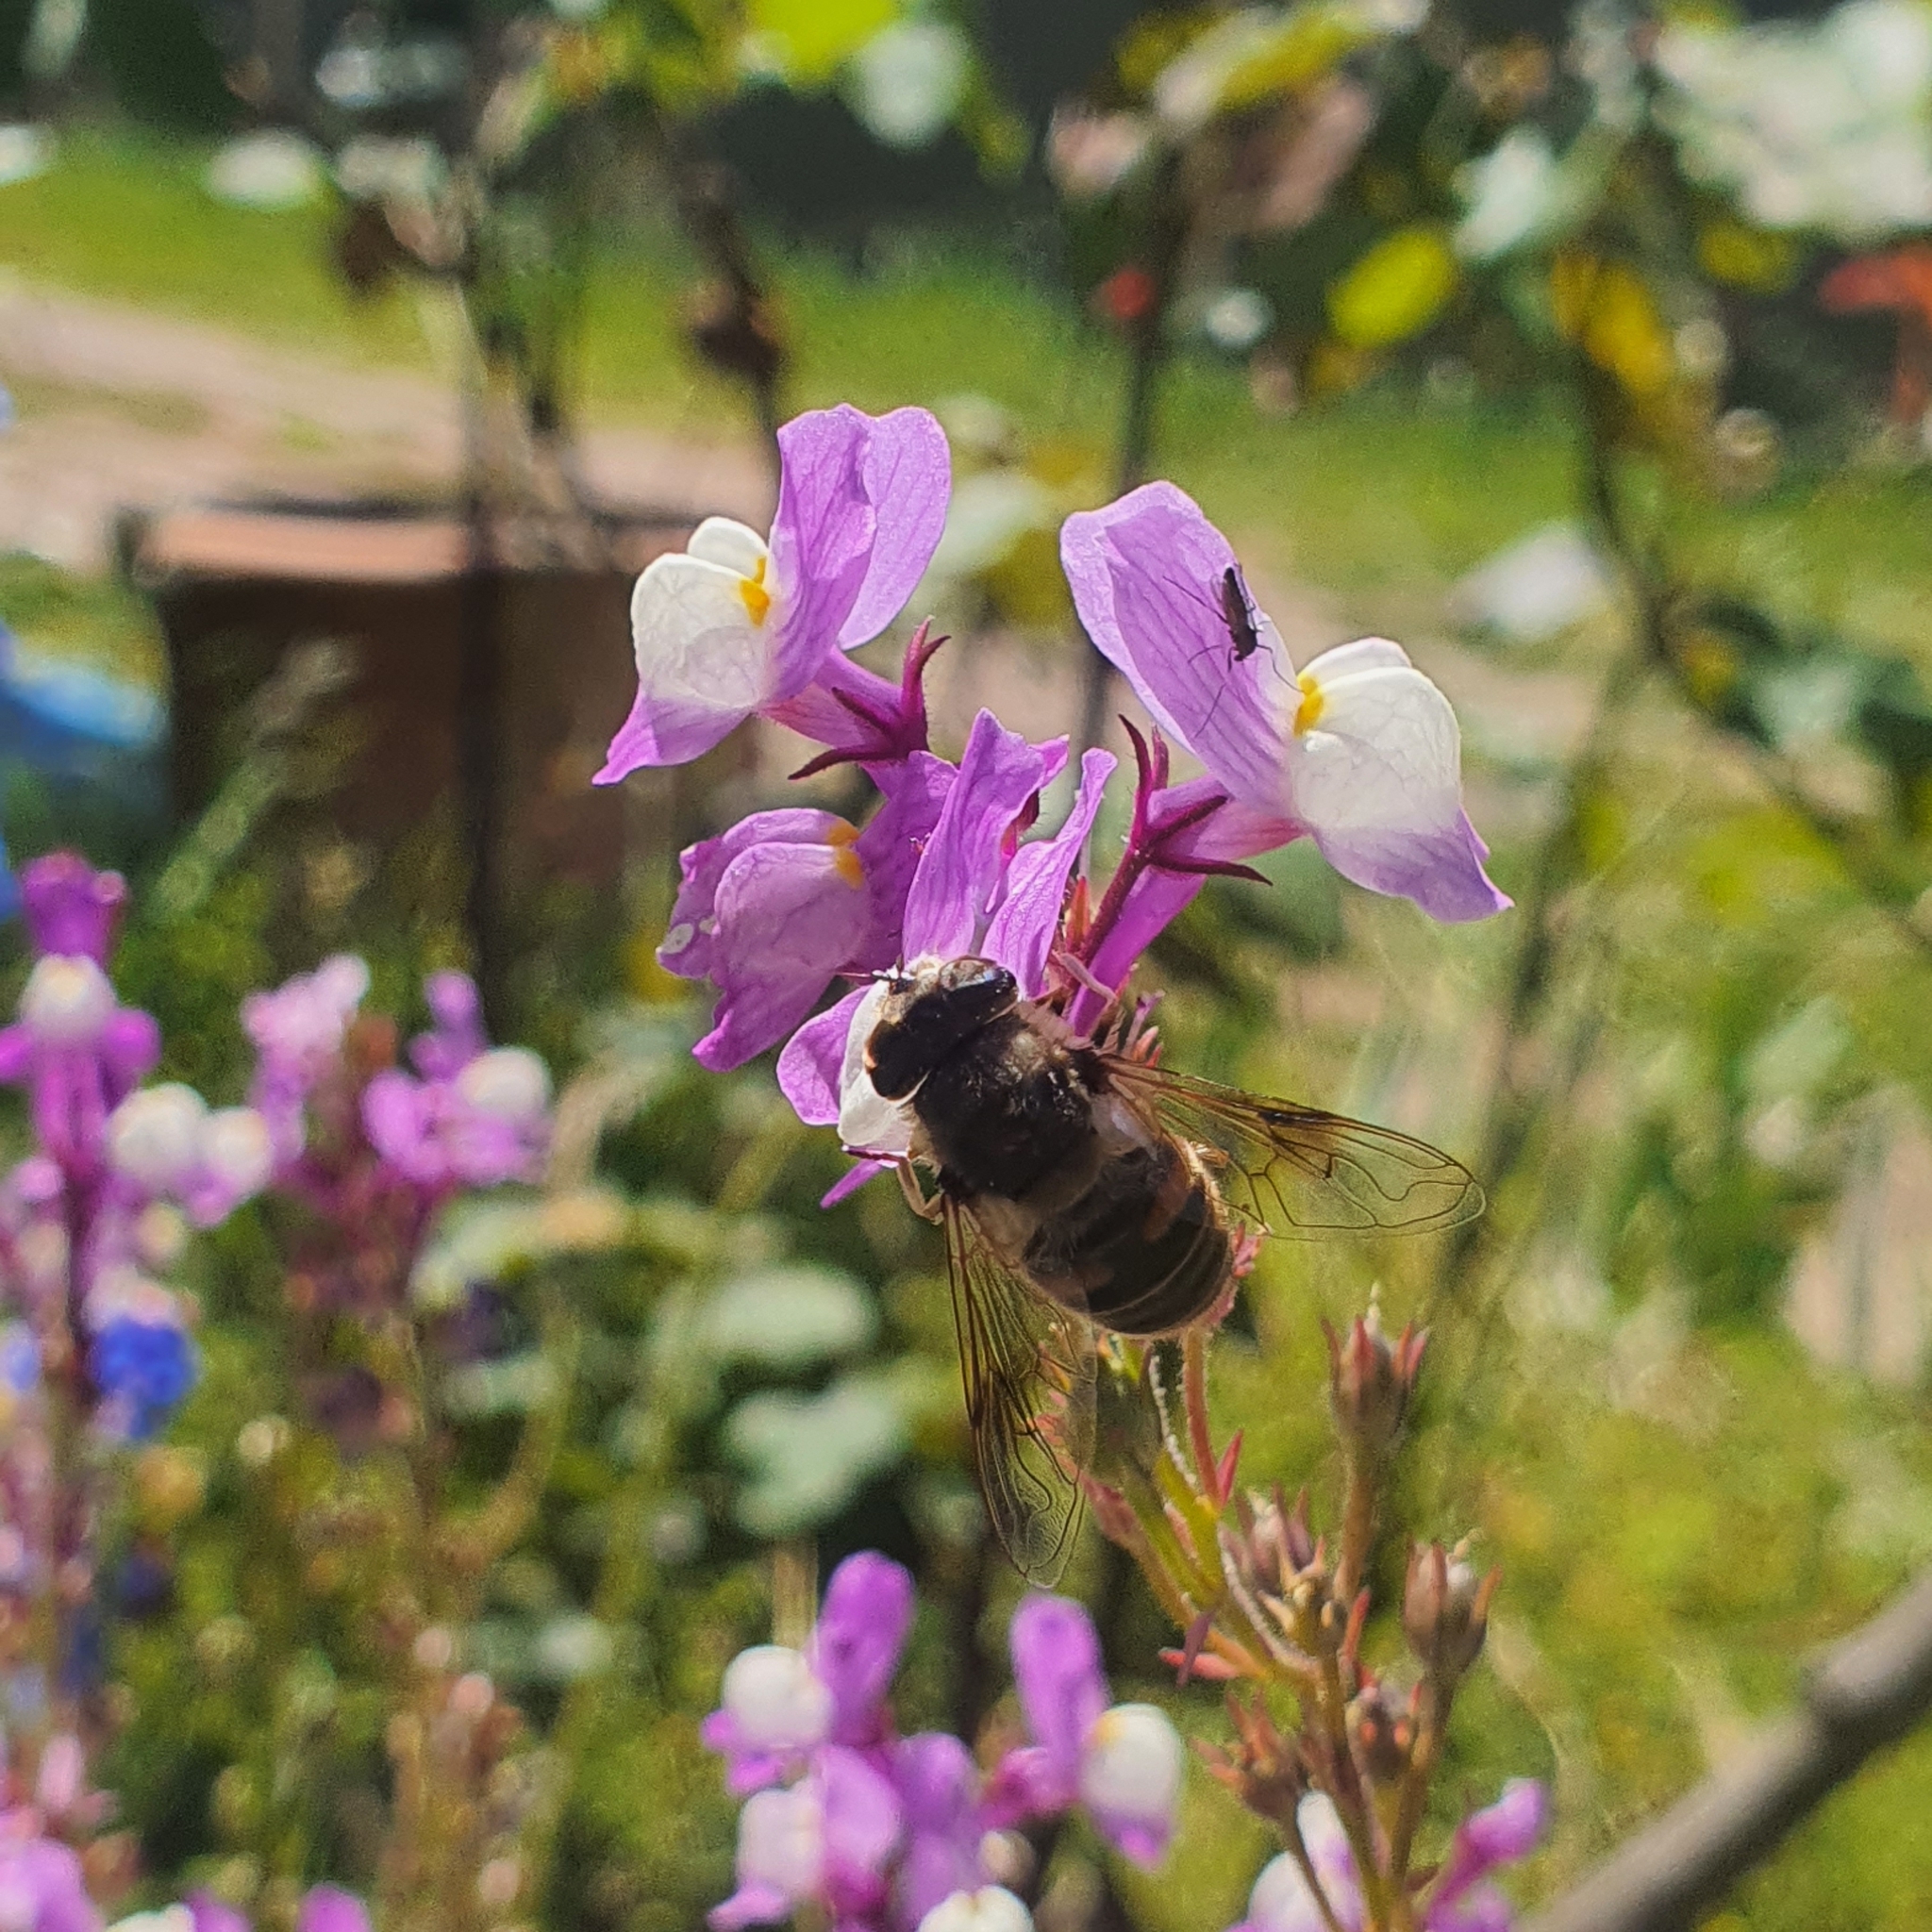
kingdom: Animalia
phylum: Arthropoda
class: Insecta
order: Diptera
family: Syrphidae
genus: Eristalis
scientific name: Eristalis tenax
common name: Drone fly
